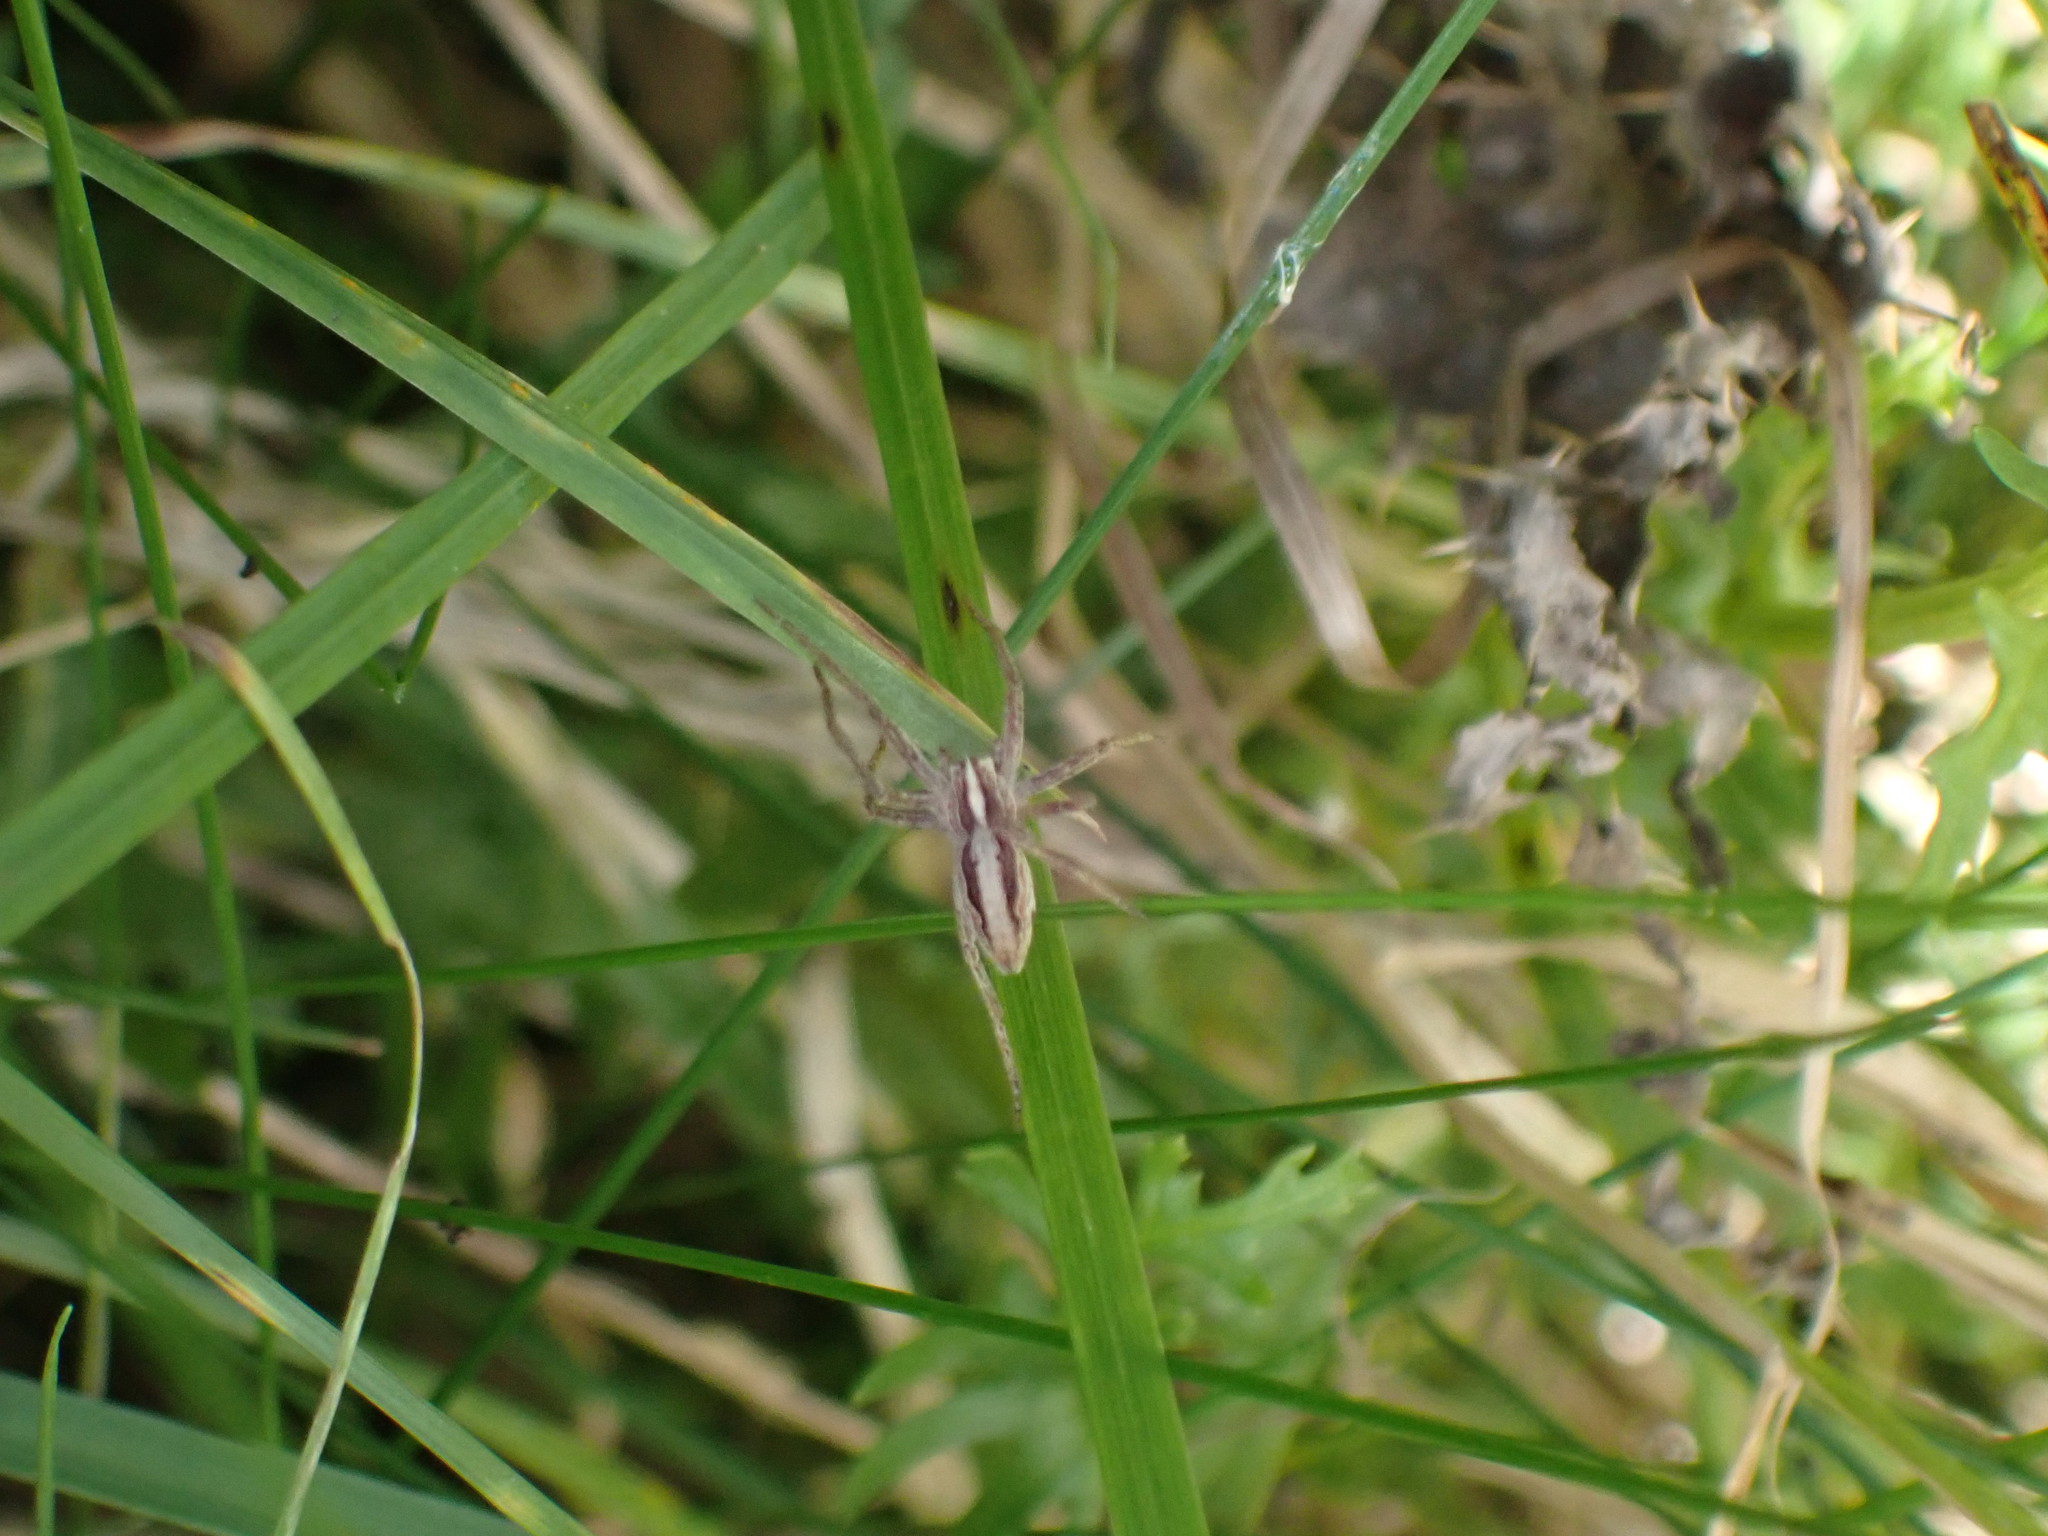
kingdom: Animalia
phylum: Arthropoda
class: Arachnida
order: Araneae
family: Pisauridae
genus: Pisaura
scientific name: Pisaura mirabilis
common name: Tent spider
